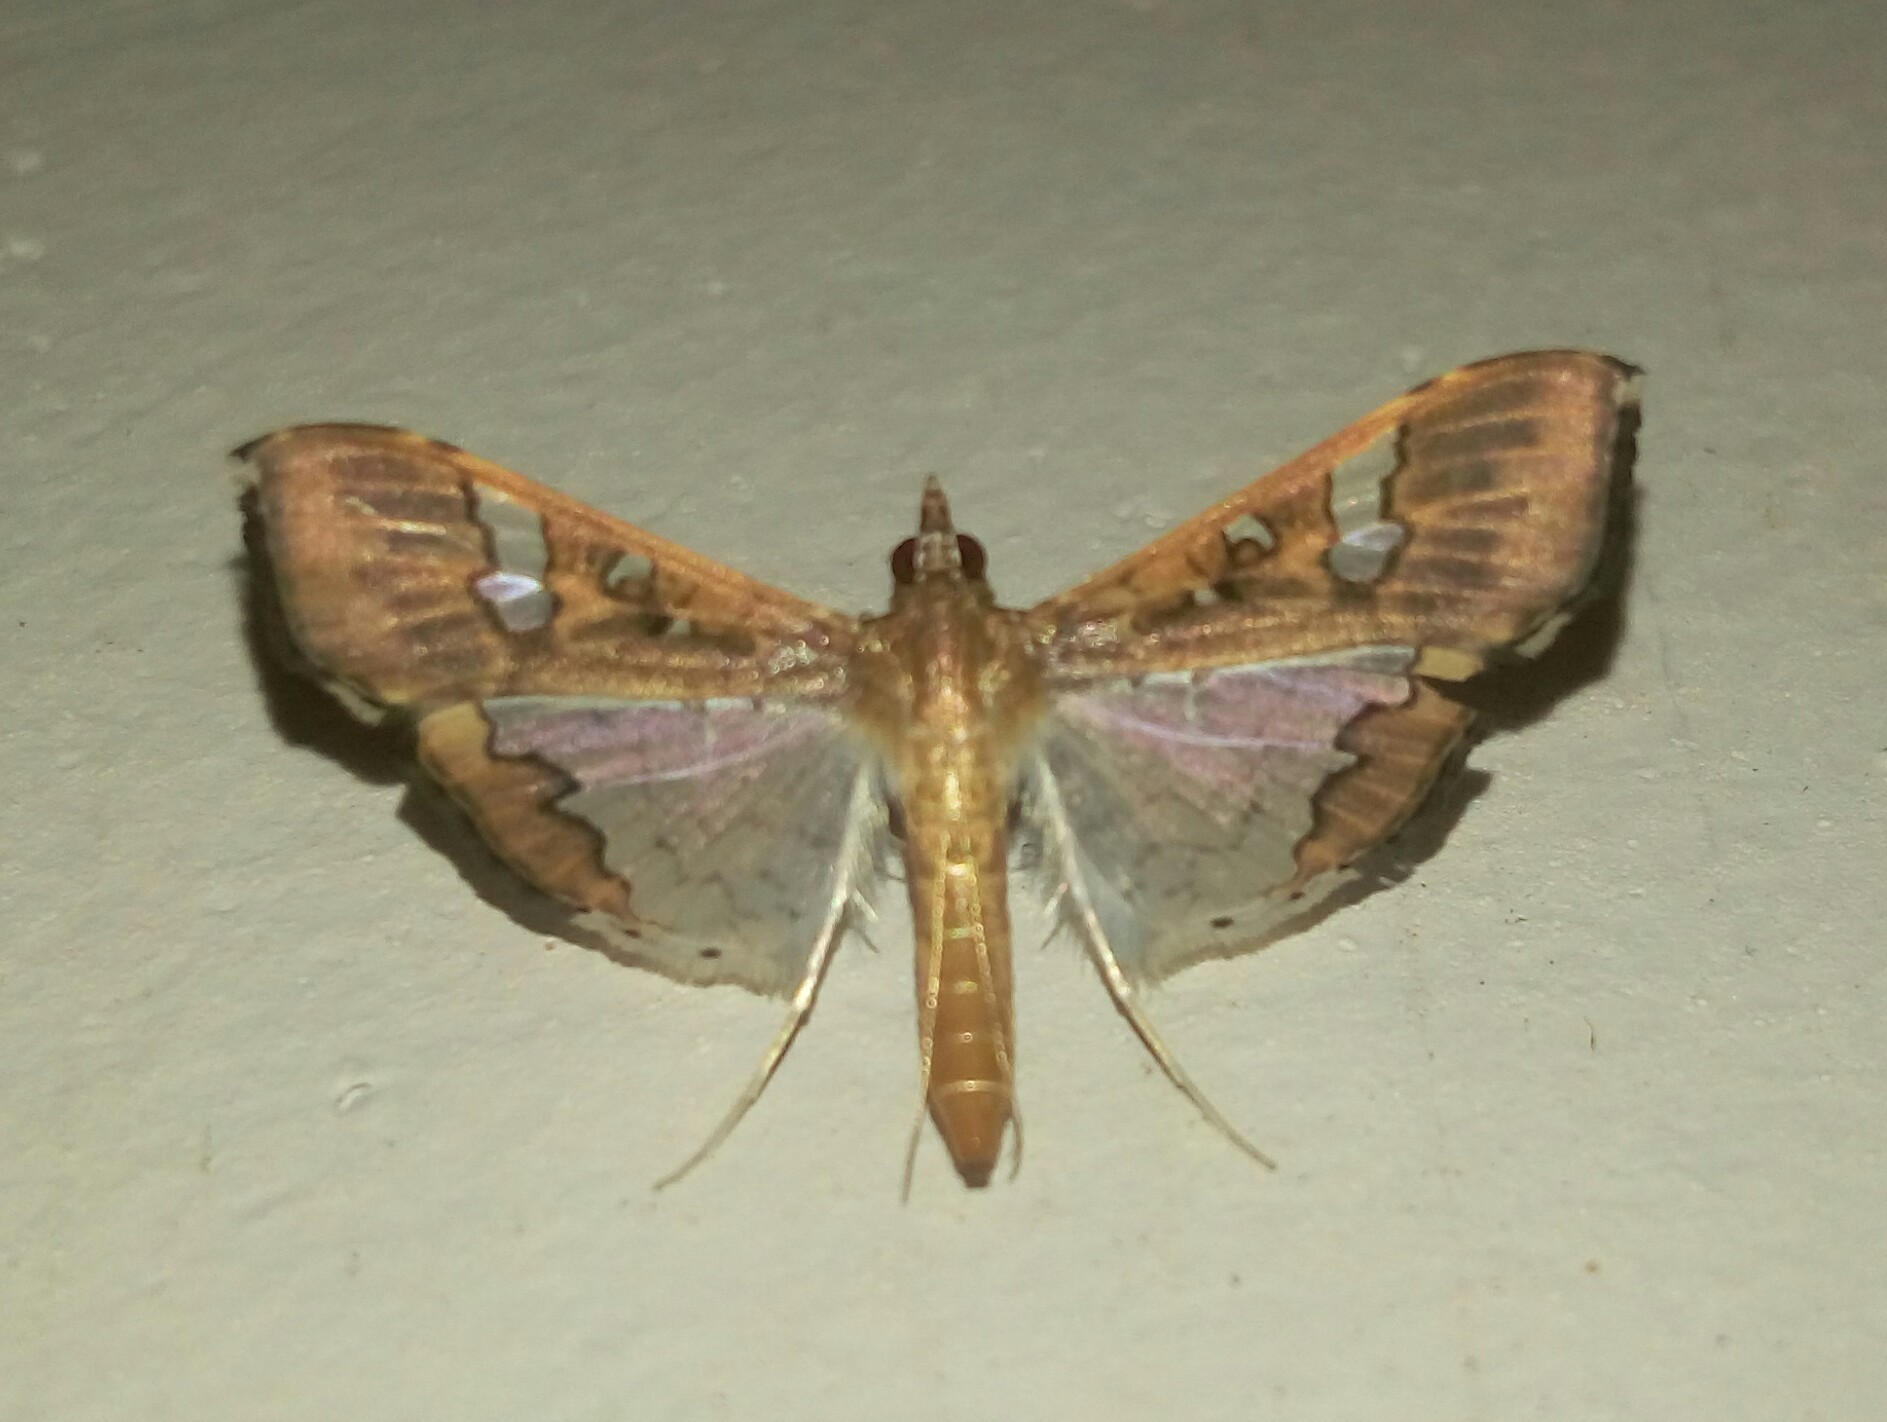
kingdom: Animalia
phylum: Arthropoda
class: Insecta
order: Lepidoptera
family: Crambidae
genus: Maruca
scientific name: Maruca vitrata
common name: Maruca pod borer
